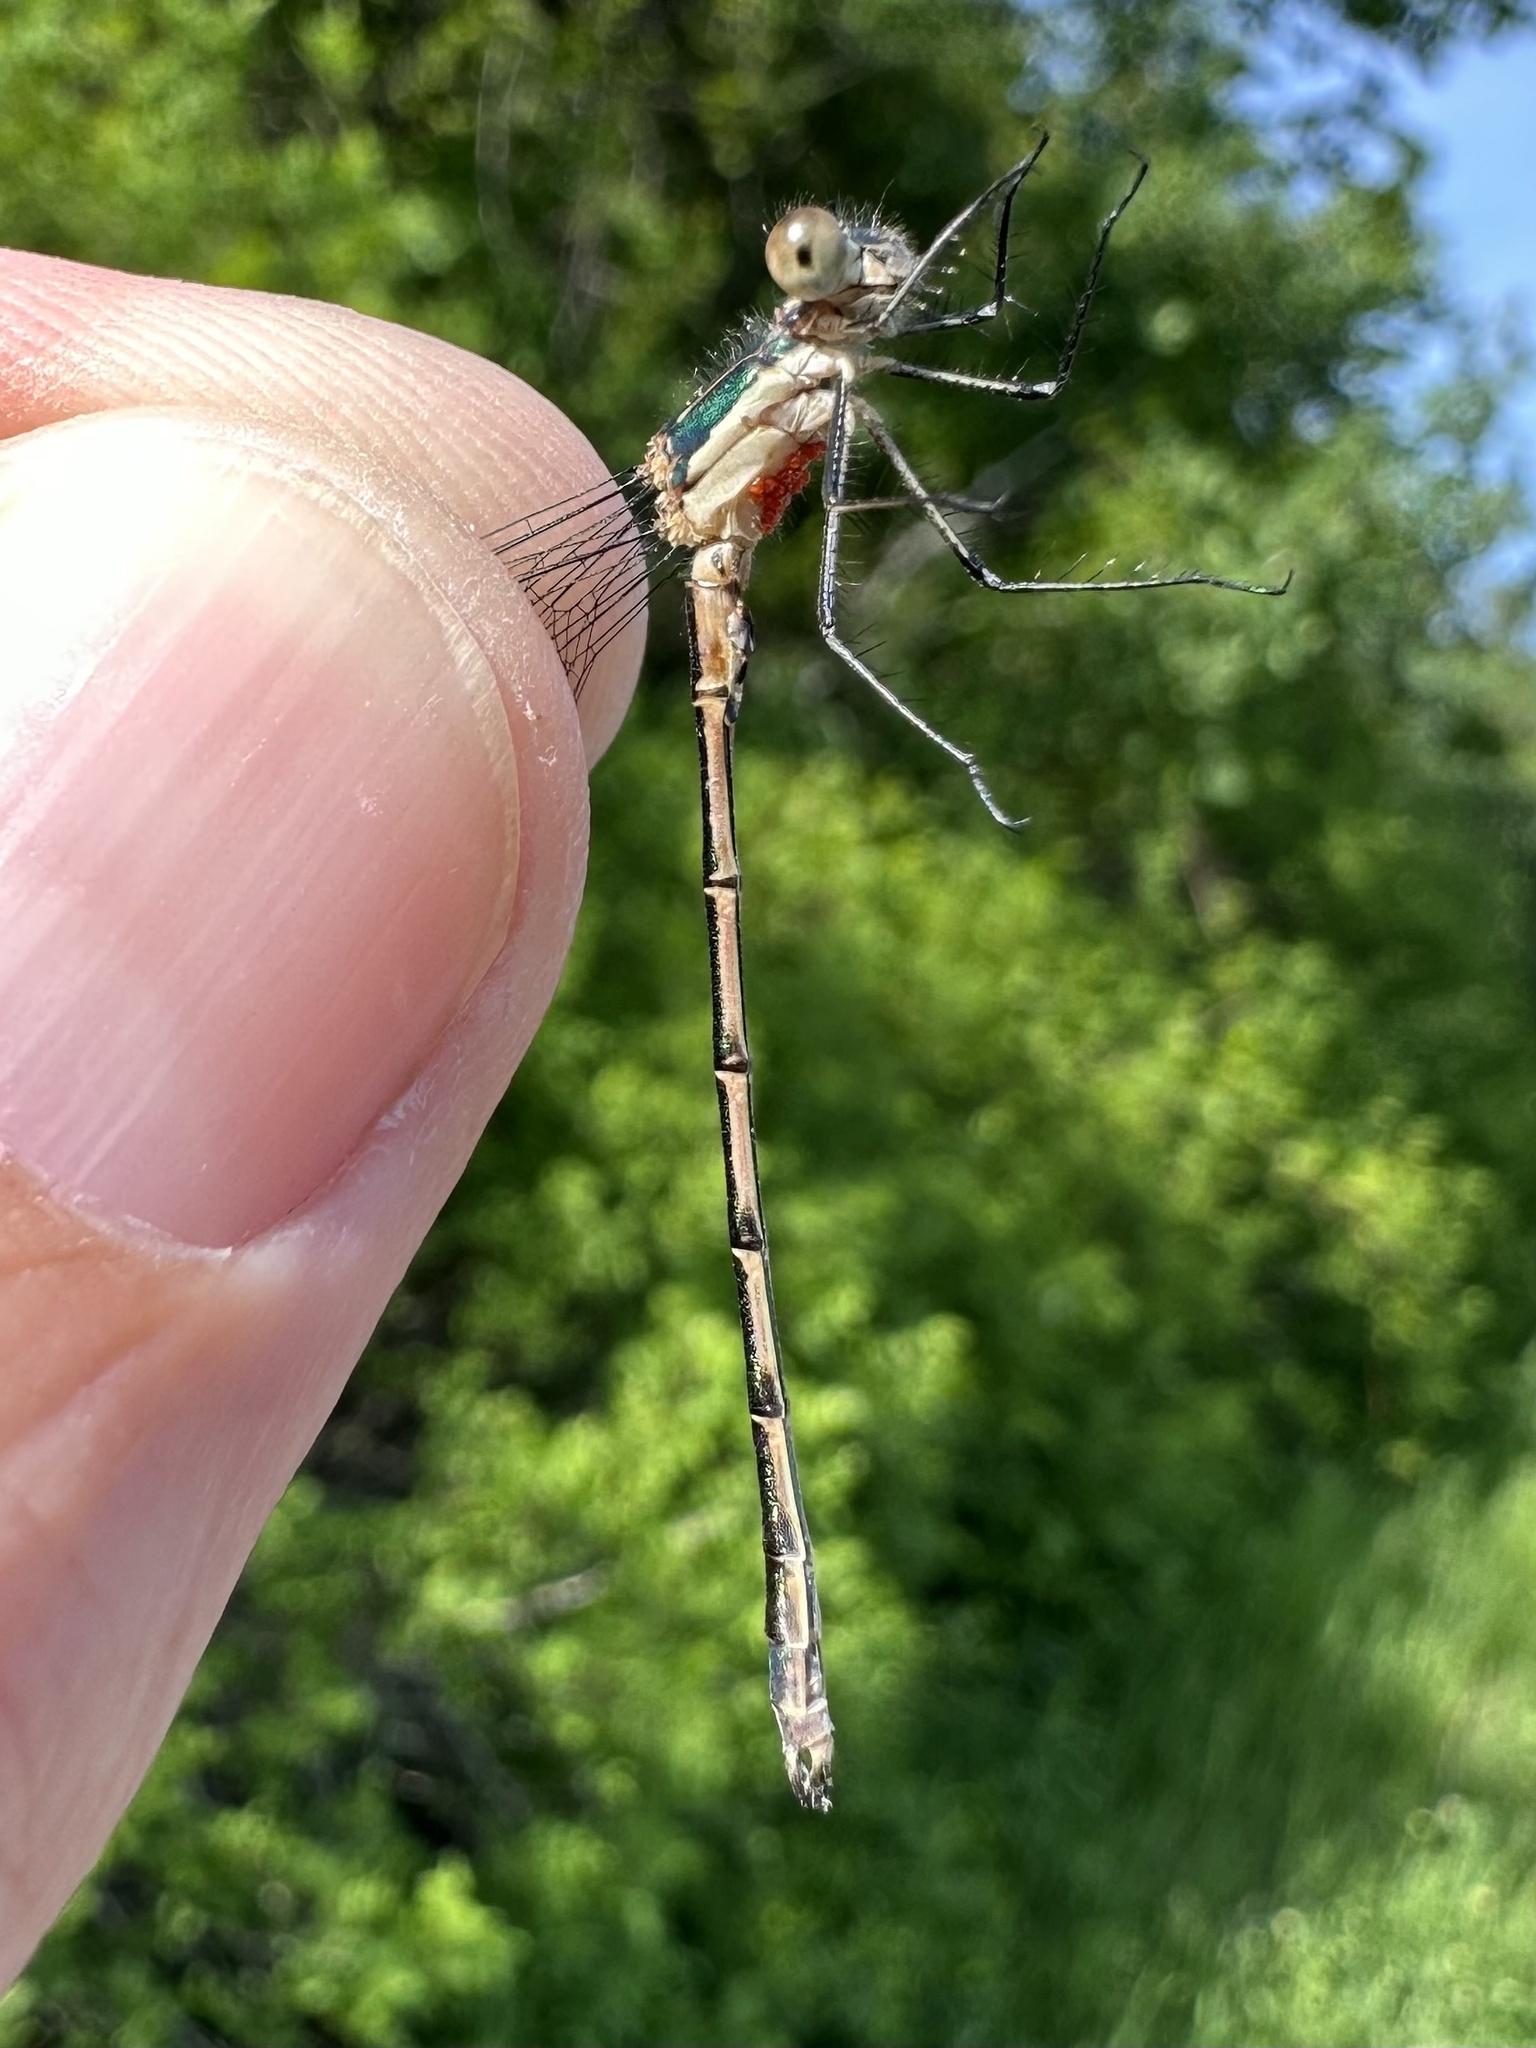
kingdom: Animalia
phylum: Arthropoda
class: Insecta
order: Odonata
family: Lestidae
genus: Lestes
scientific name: Lestes dryas
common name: Scarce emerald damselfly
